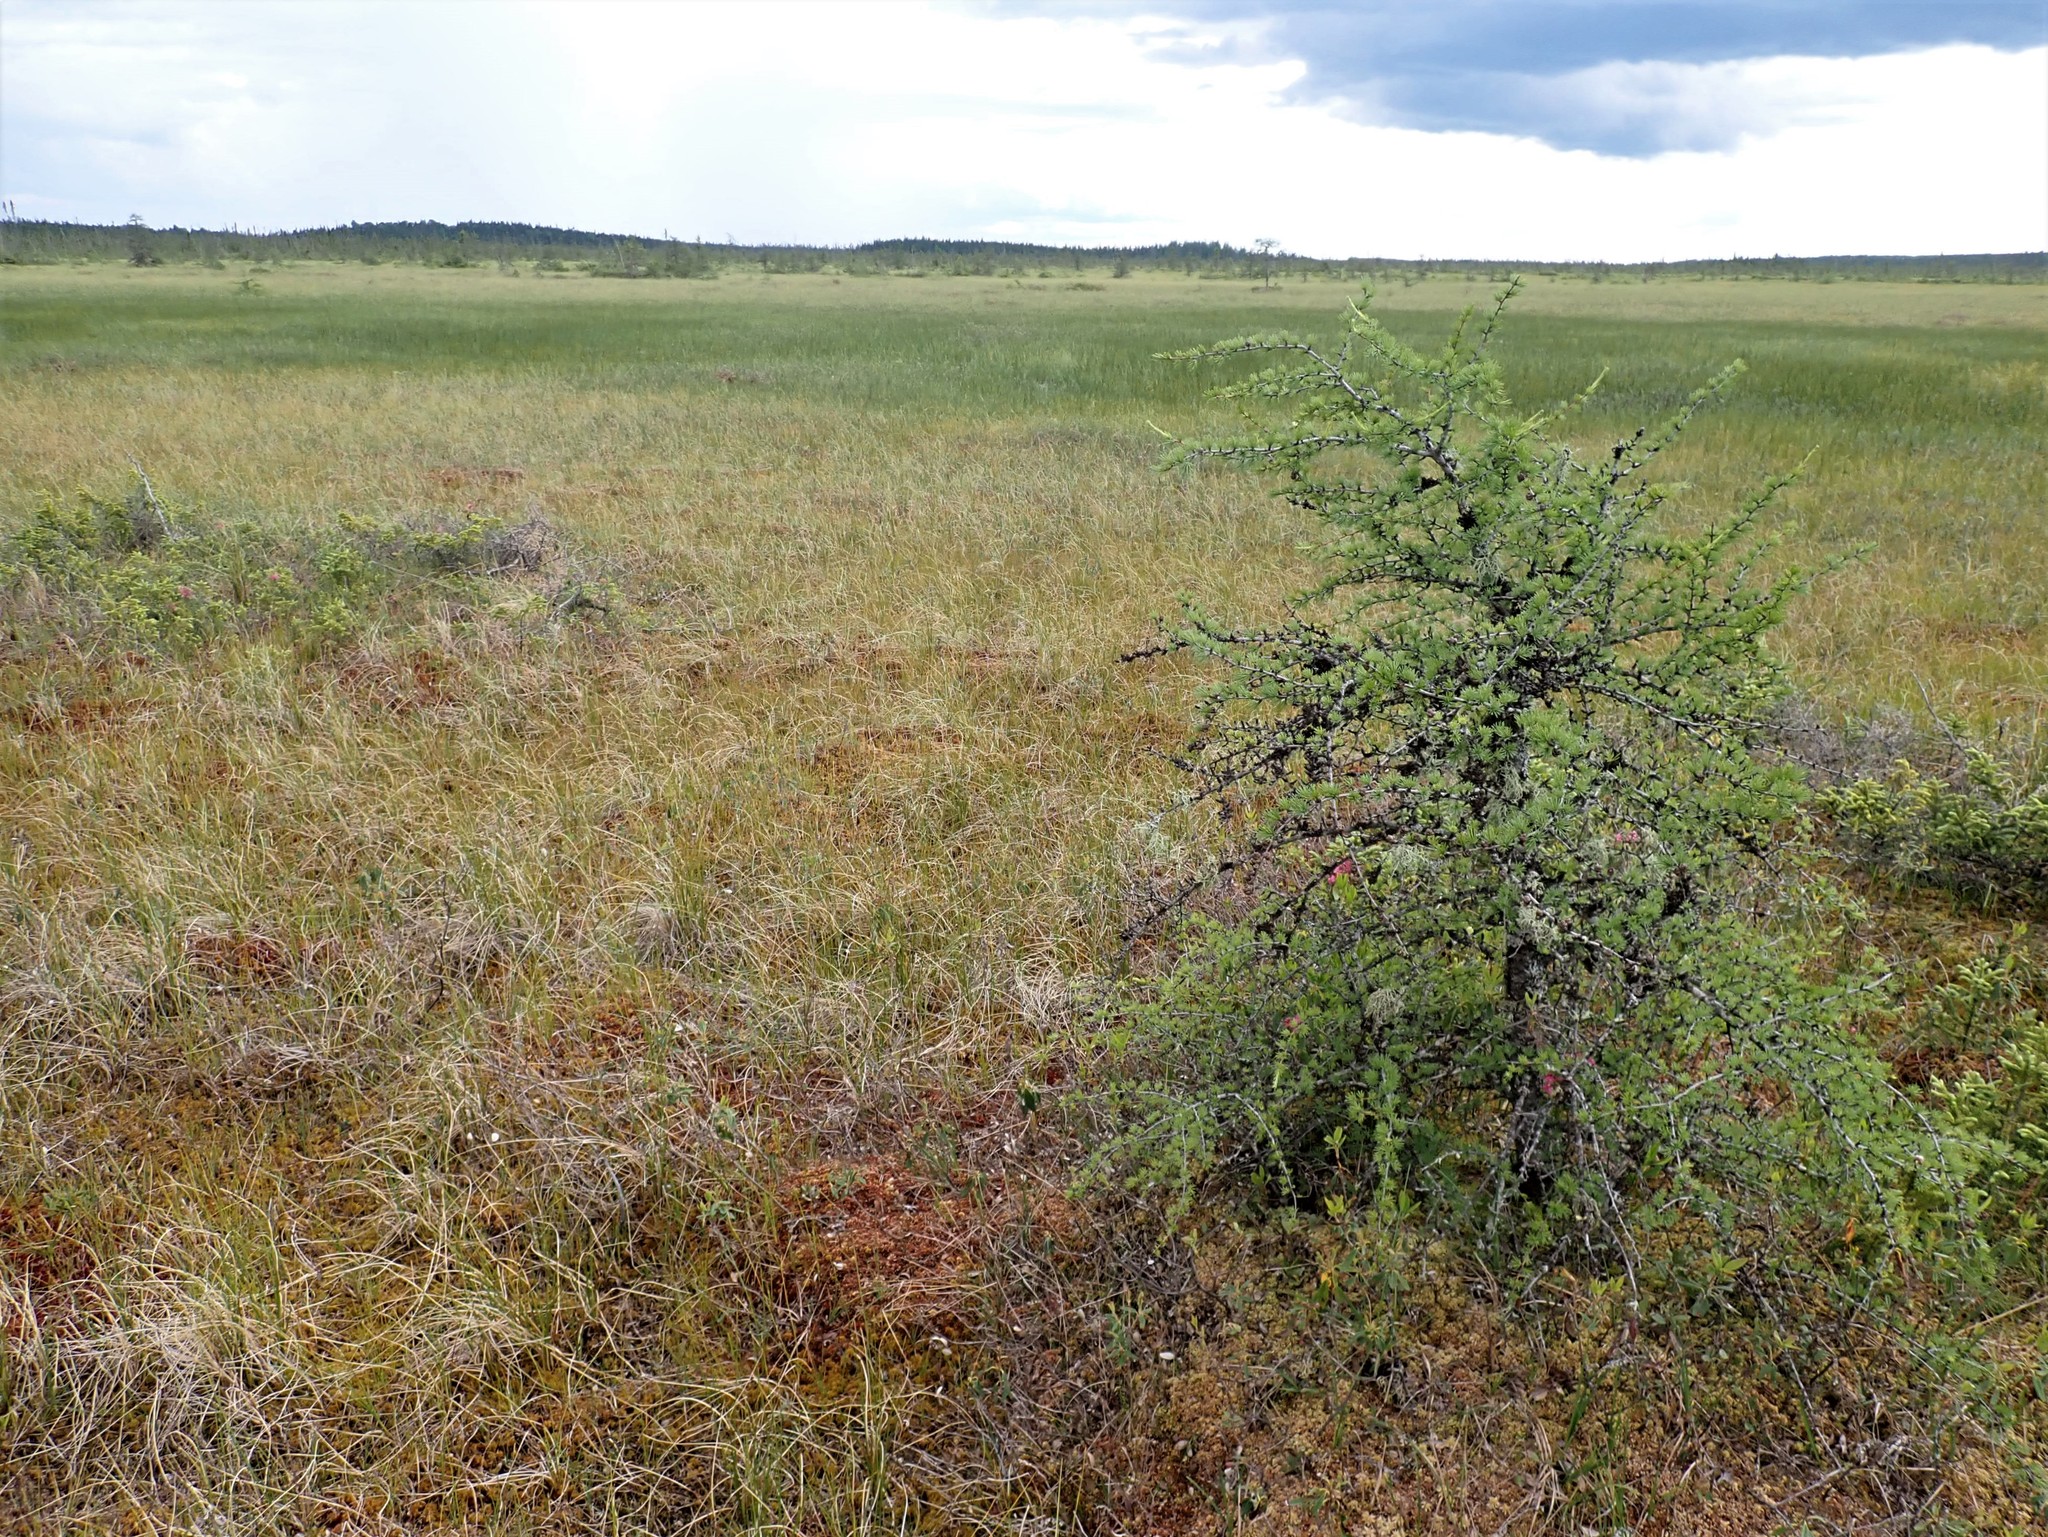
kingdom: Plantae
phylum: Tracheophyta
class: Pinopsida
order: Pinales
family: Pinaceae
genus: Larix
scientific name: Larix laricina
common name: American larch
